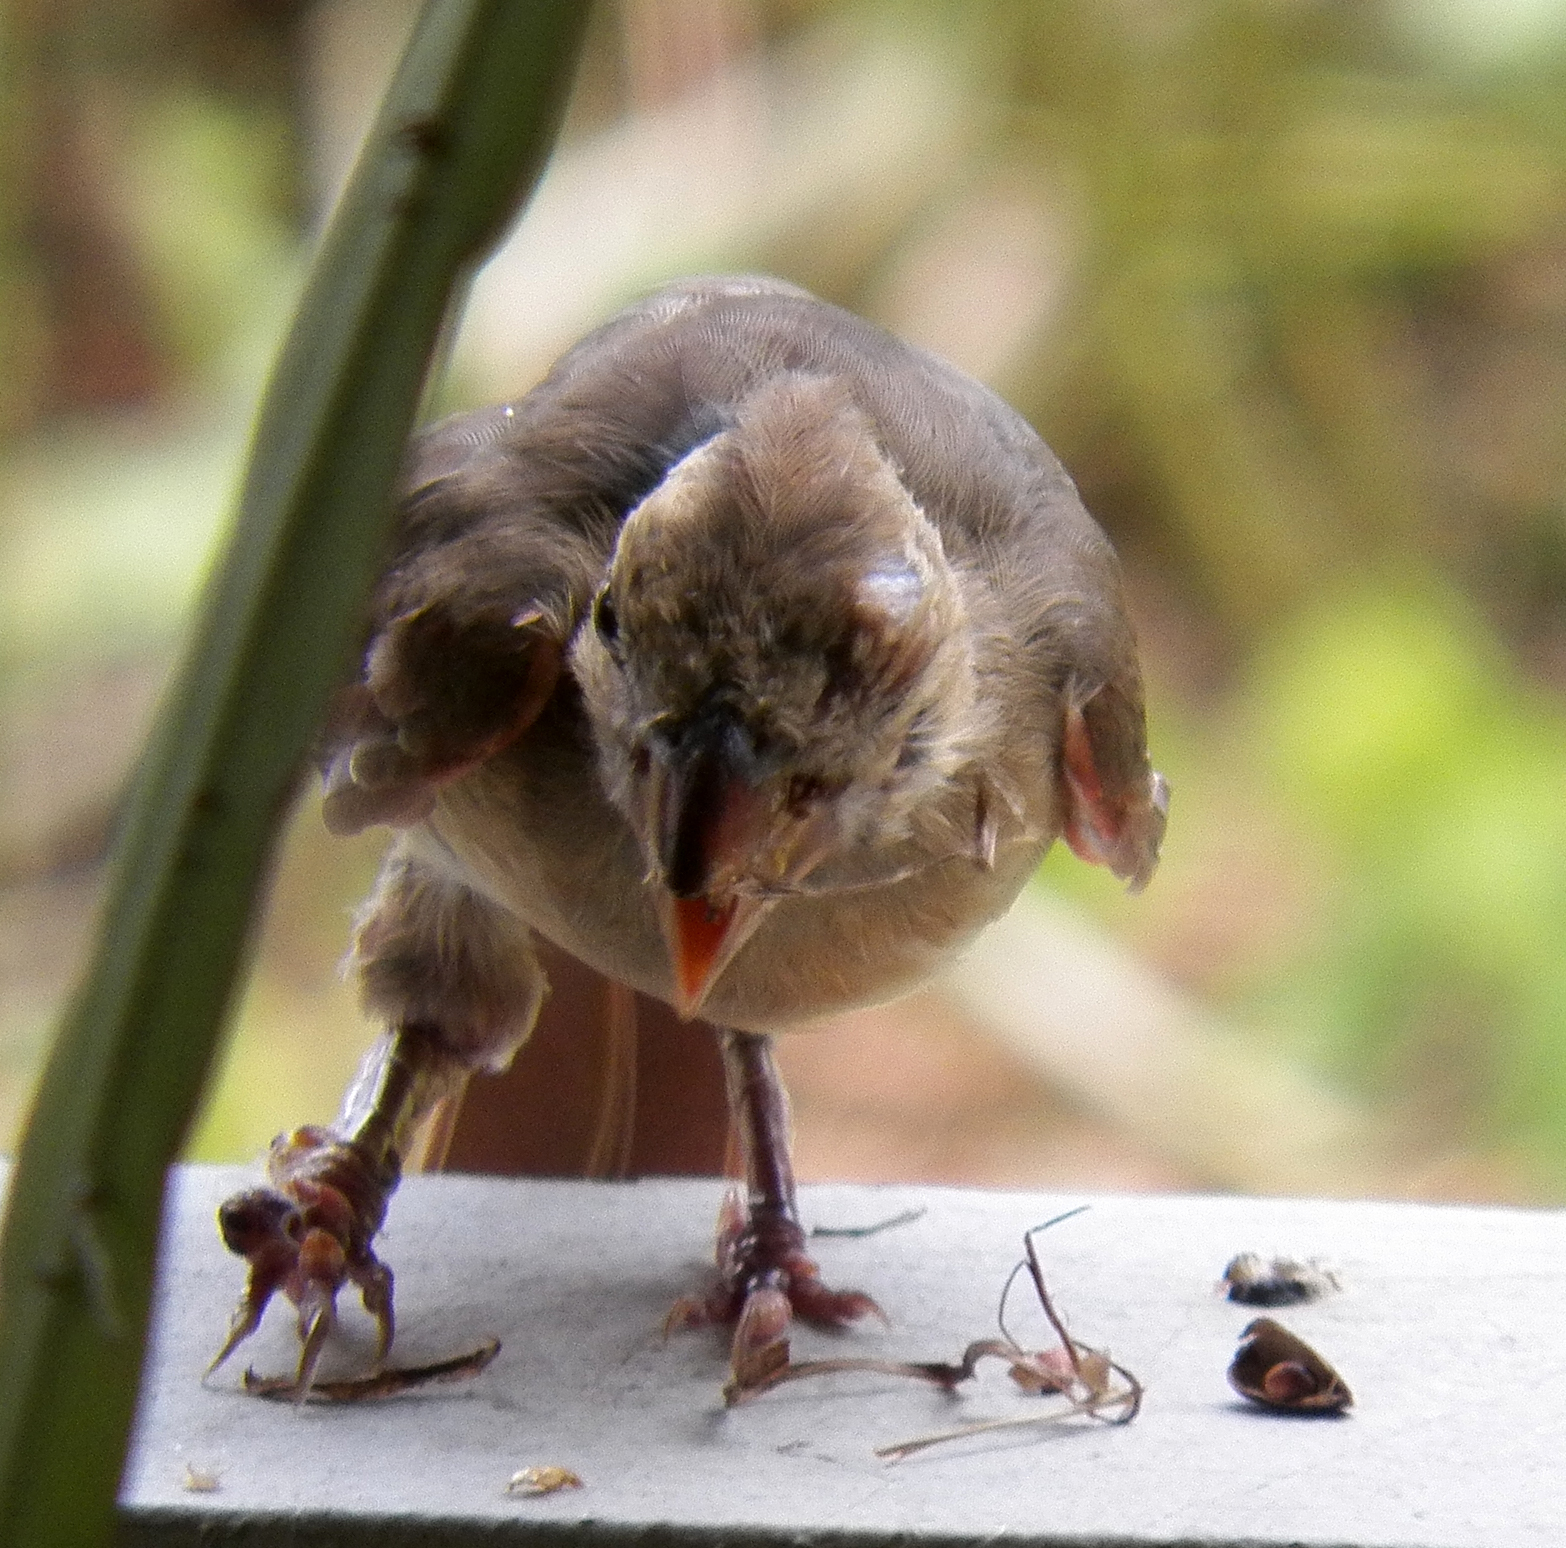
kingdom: Animalia
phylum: Chordata
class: Aves
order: Passeriformes
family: Cardinalidae
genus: Cardinalis
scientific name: Cardinalis cardinalis
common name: Northern cardinal
